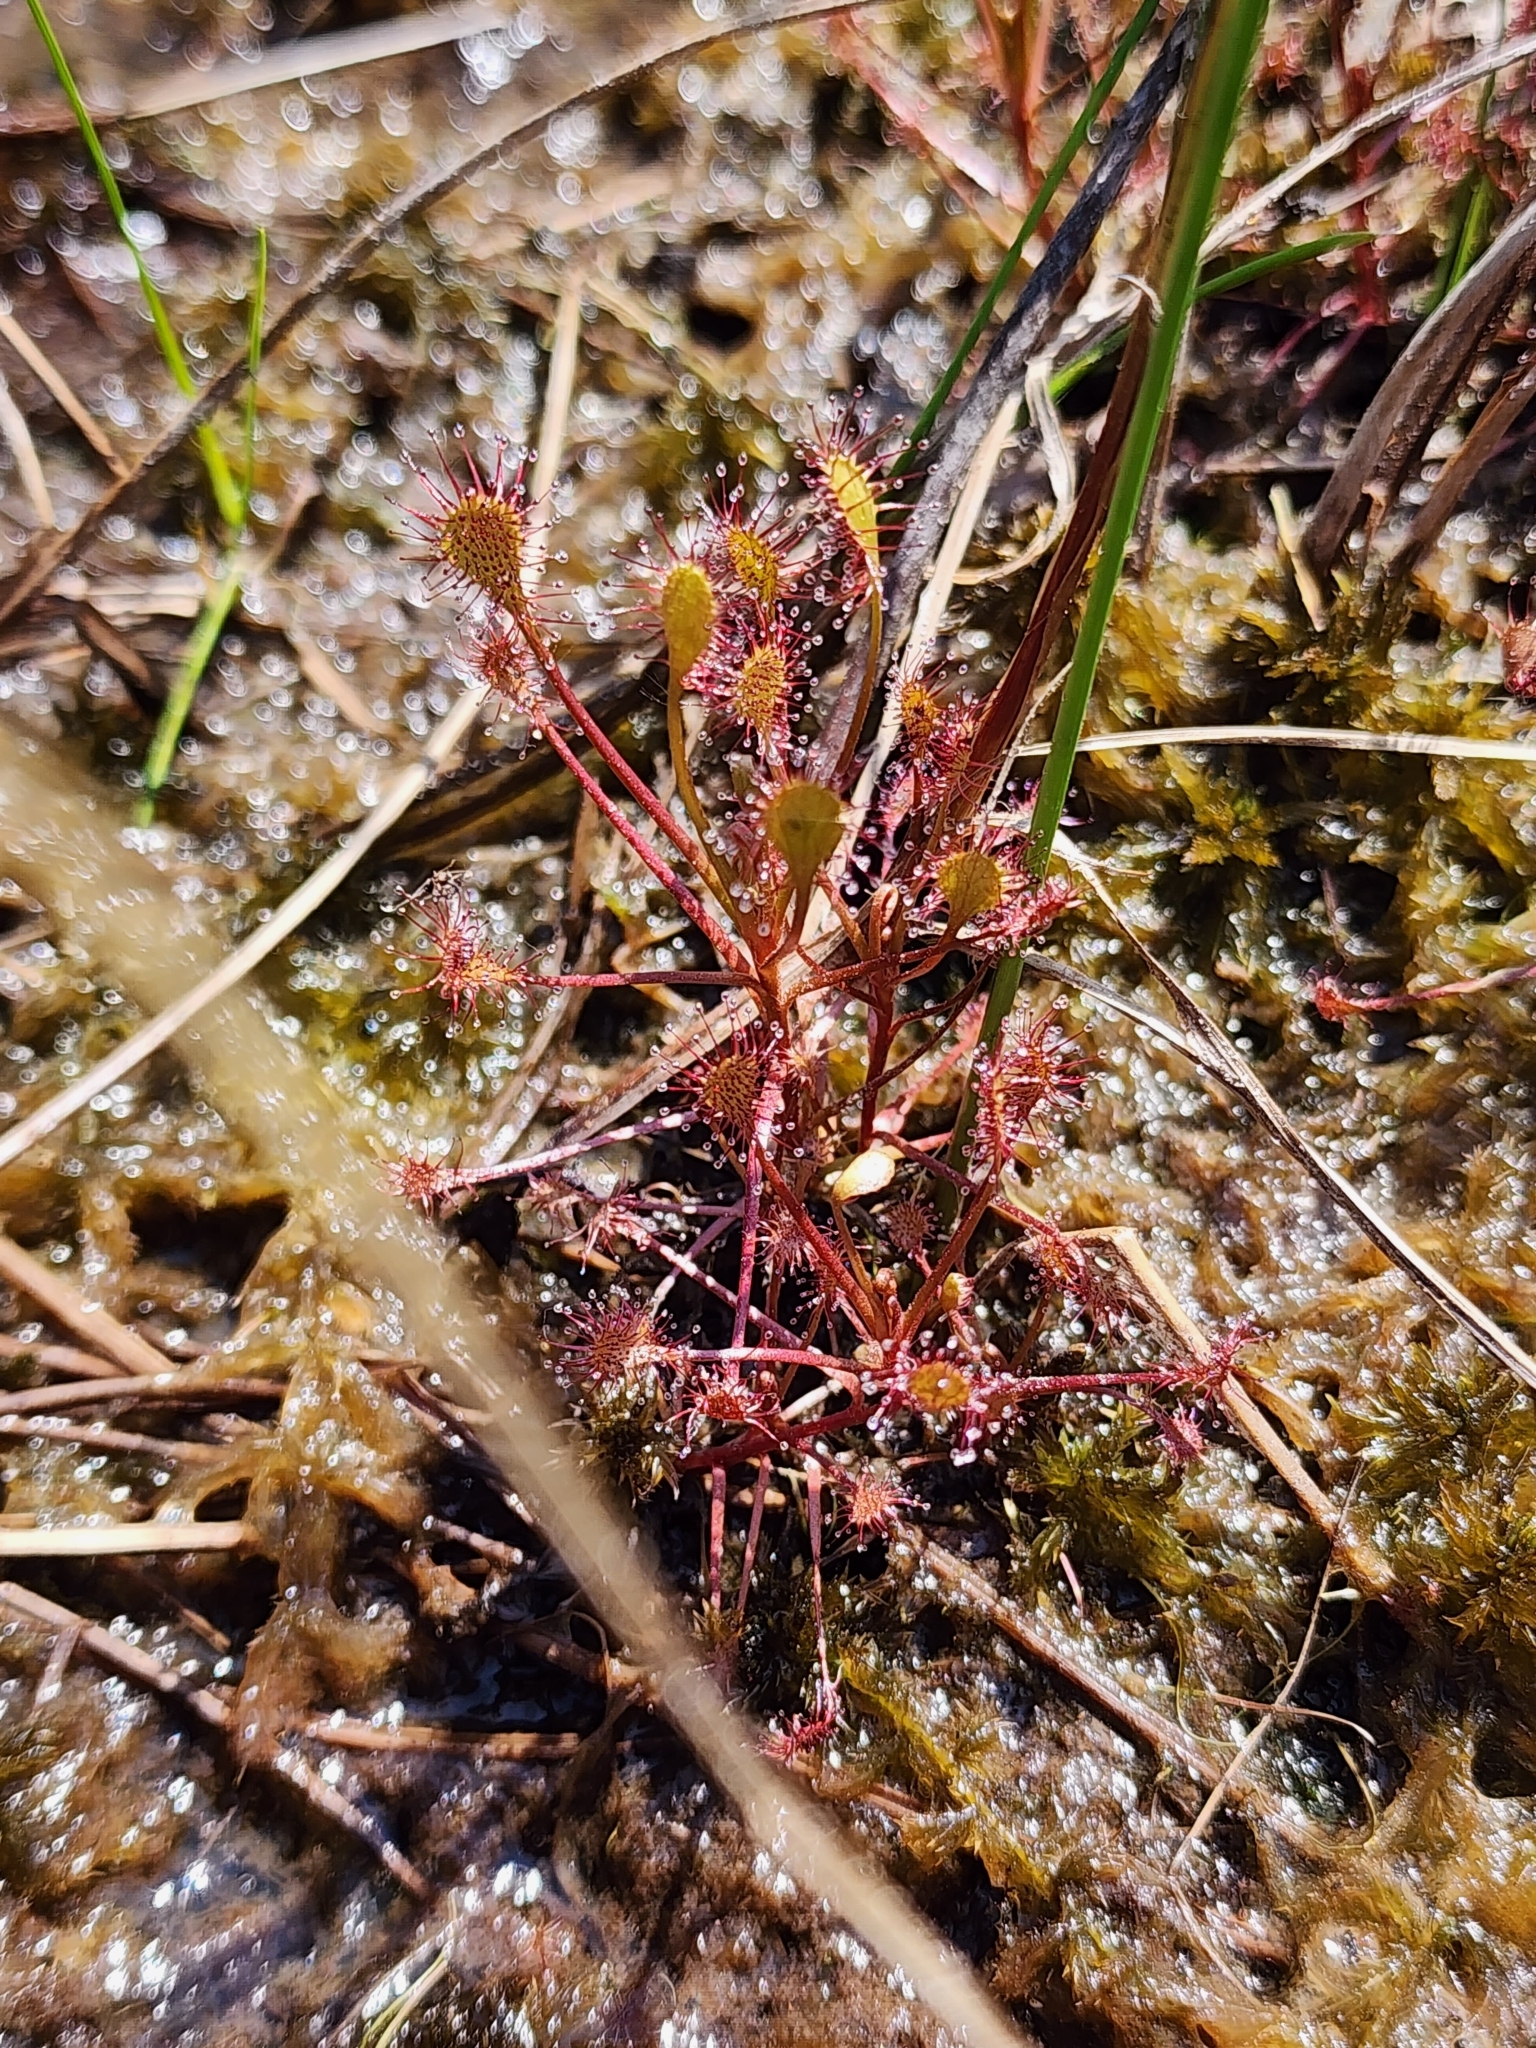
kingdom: Plantae
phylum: Tracheophyta
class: Magnoliopsida
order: Caryophyllales
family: Droseraceae
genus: Drosera
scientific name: Drosera intermedia
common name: Oblong-leaved sundew
